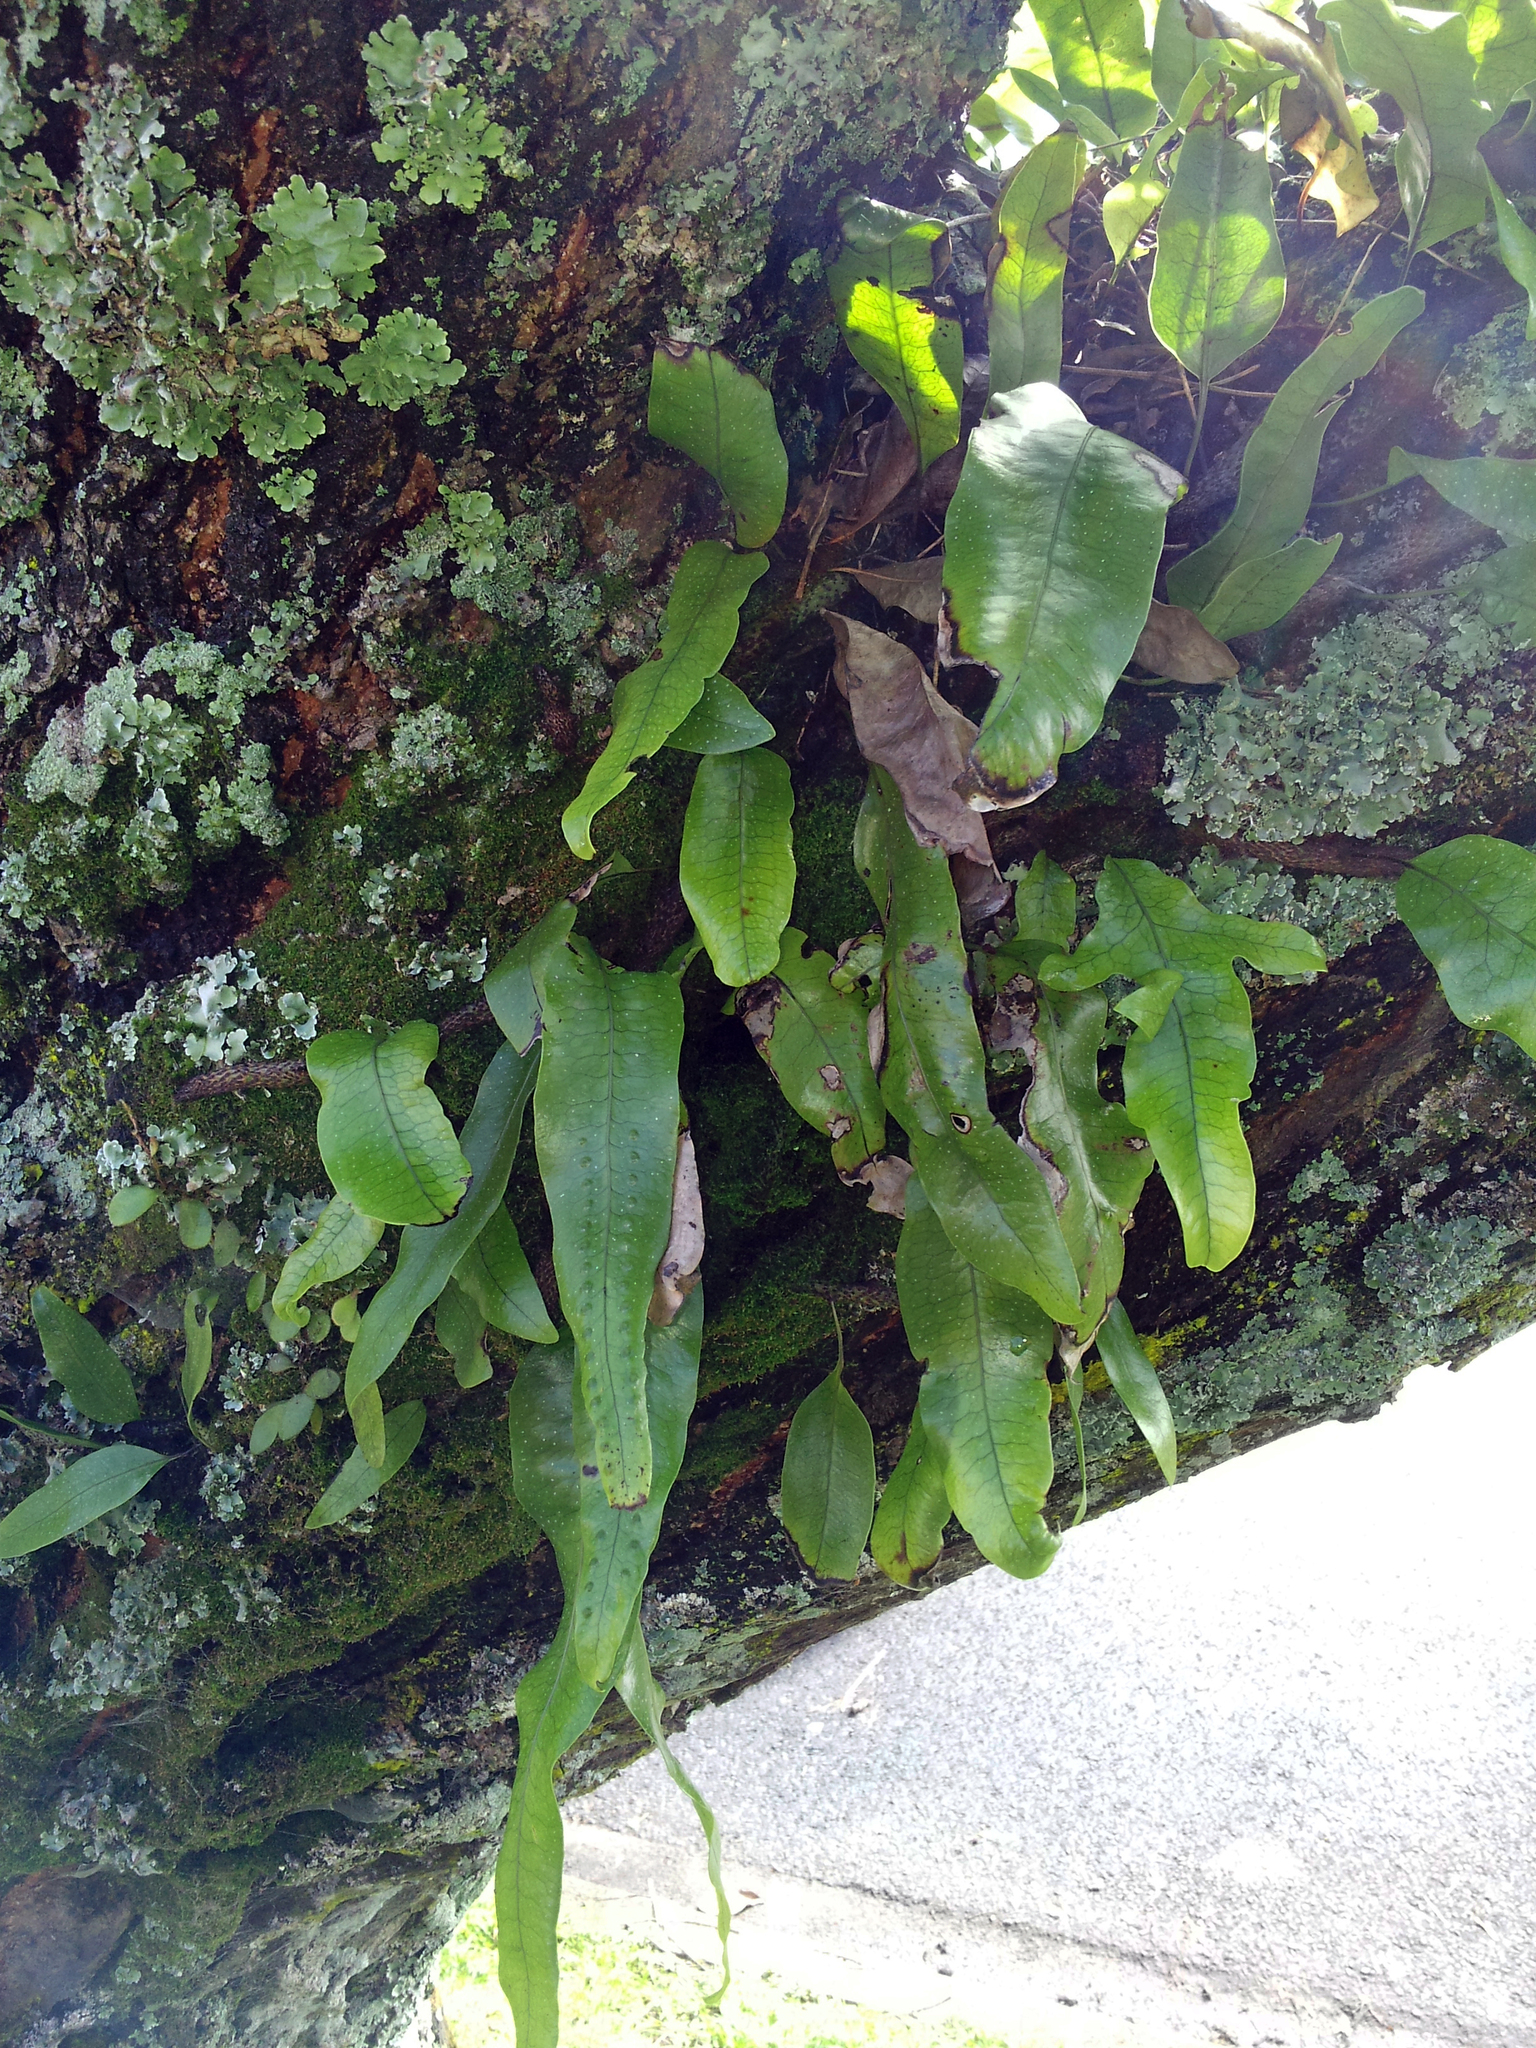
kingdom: Plantae
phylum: Tracheophyta
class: Polypodiopsida
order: Polypodiales
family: Polypodiaceae
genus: Lecanopteris
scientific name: Lecanopteris pustulata
